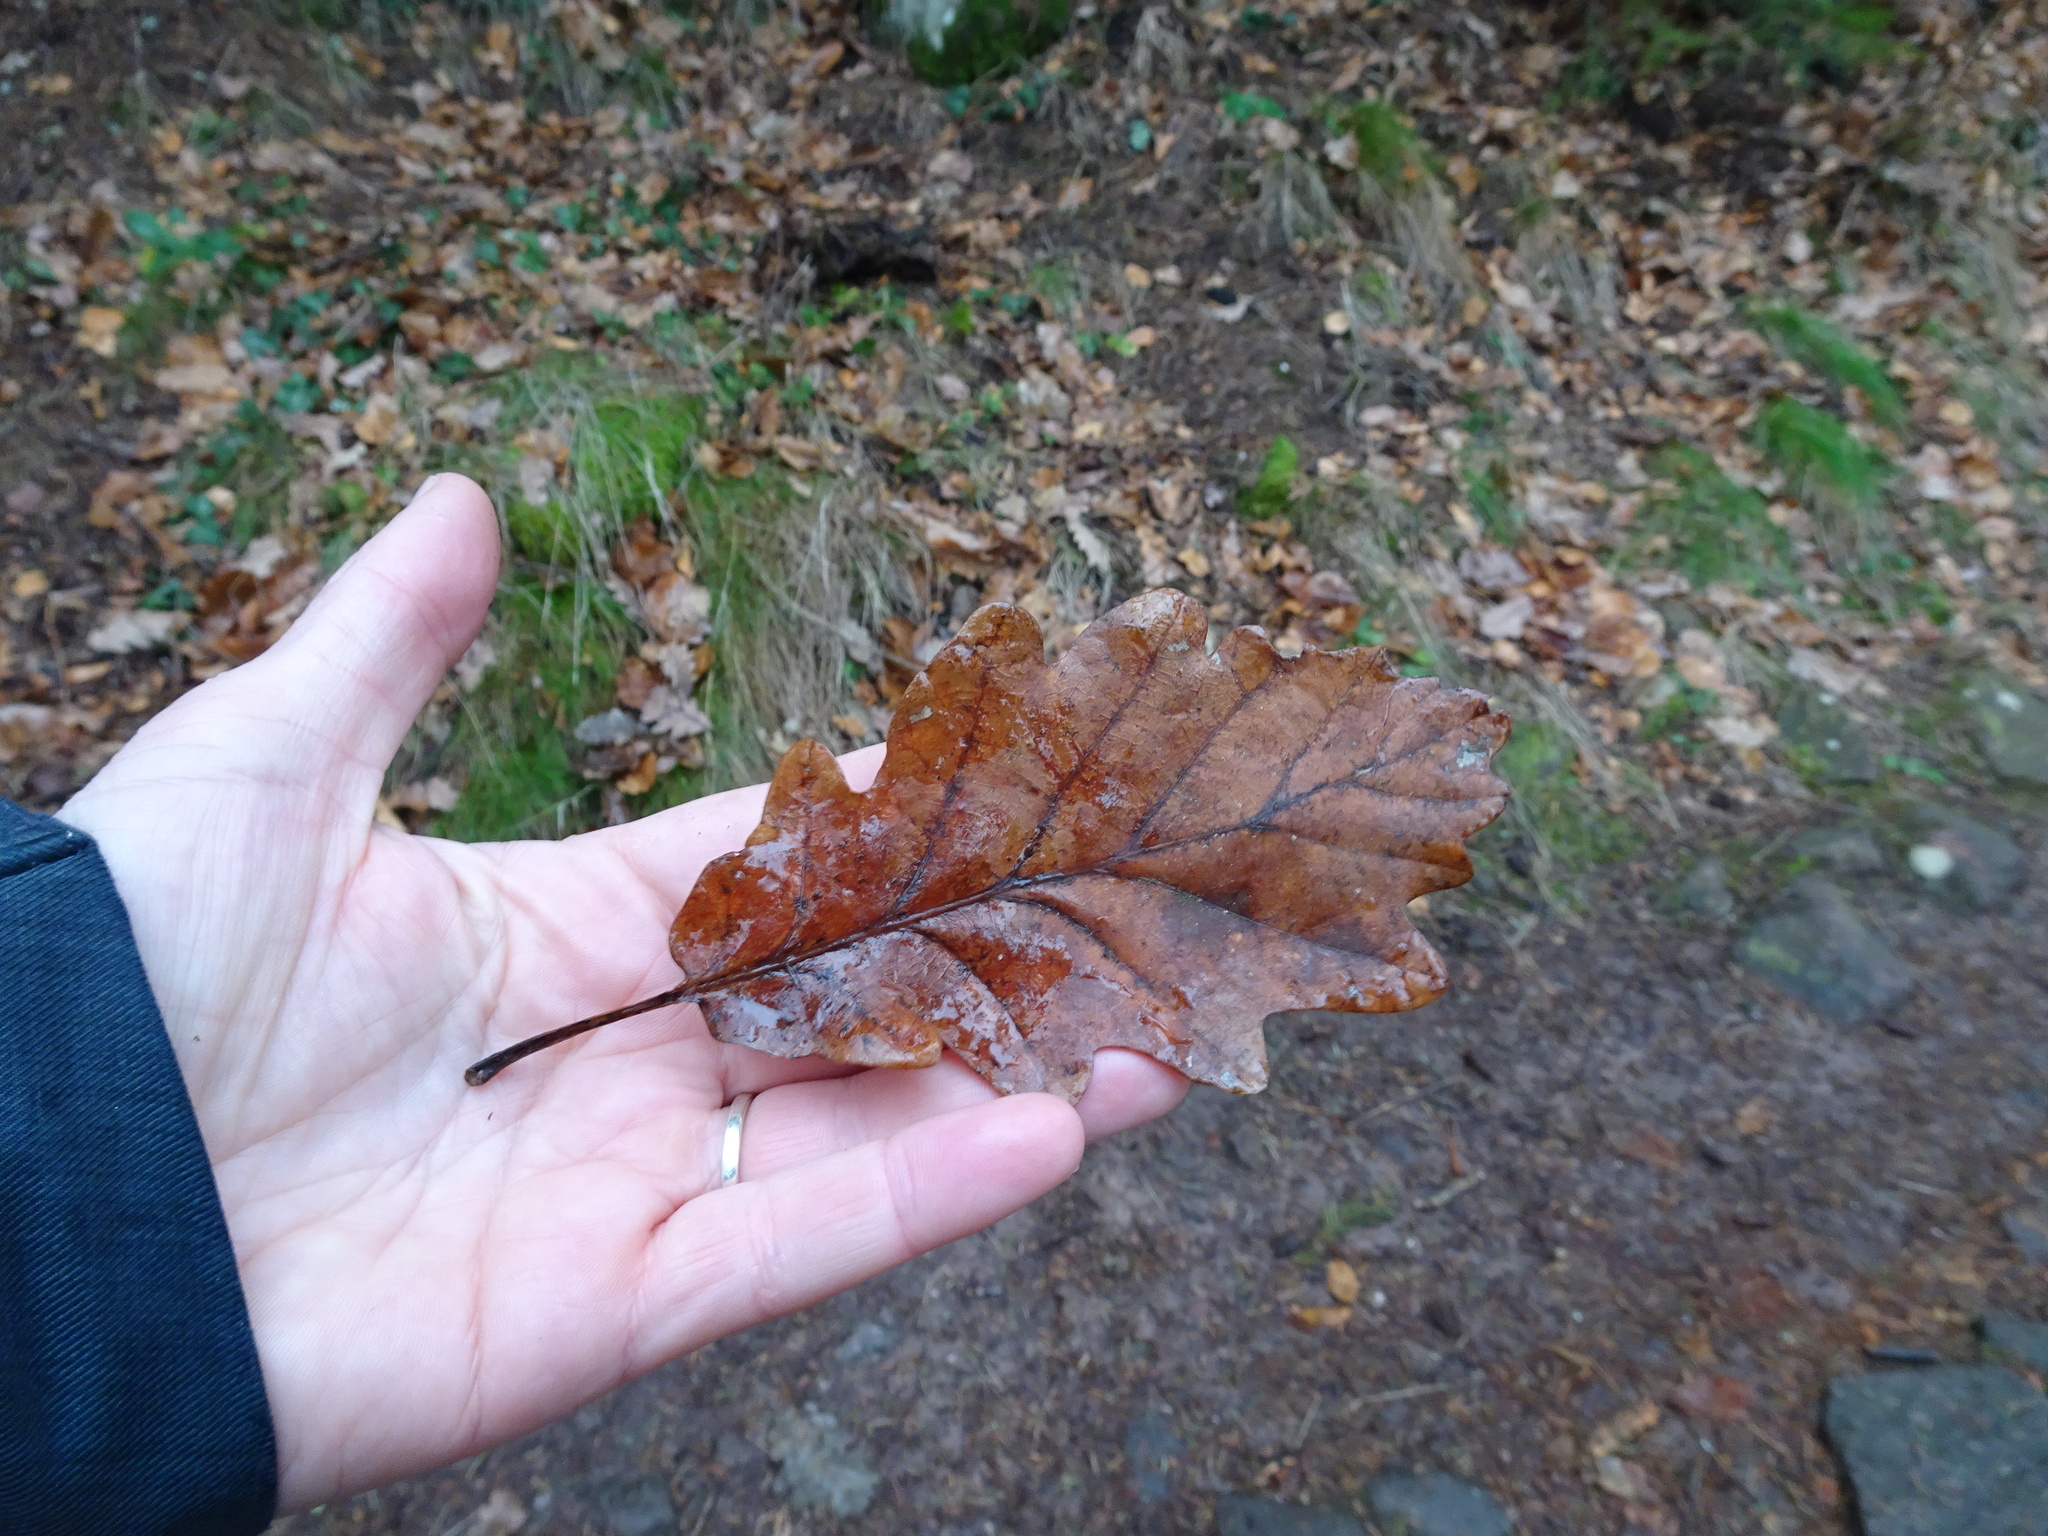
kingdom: Plantae
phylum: Tracheophyta
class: Magnoliopsida
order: Fagales
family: Fagaceae
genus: Quercus
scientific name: Quercus petraea
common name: Sessile oak
